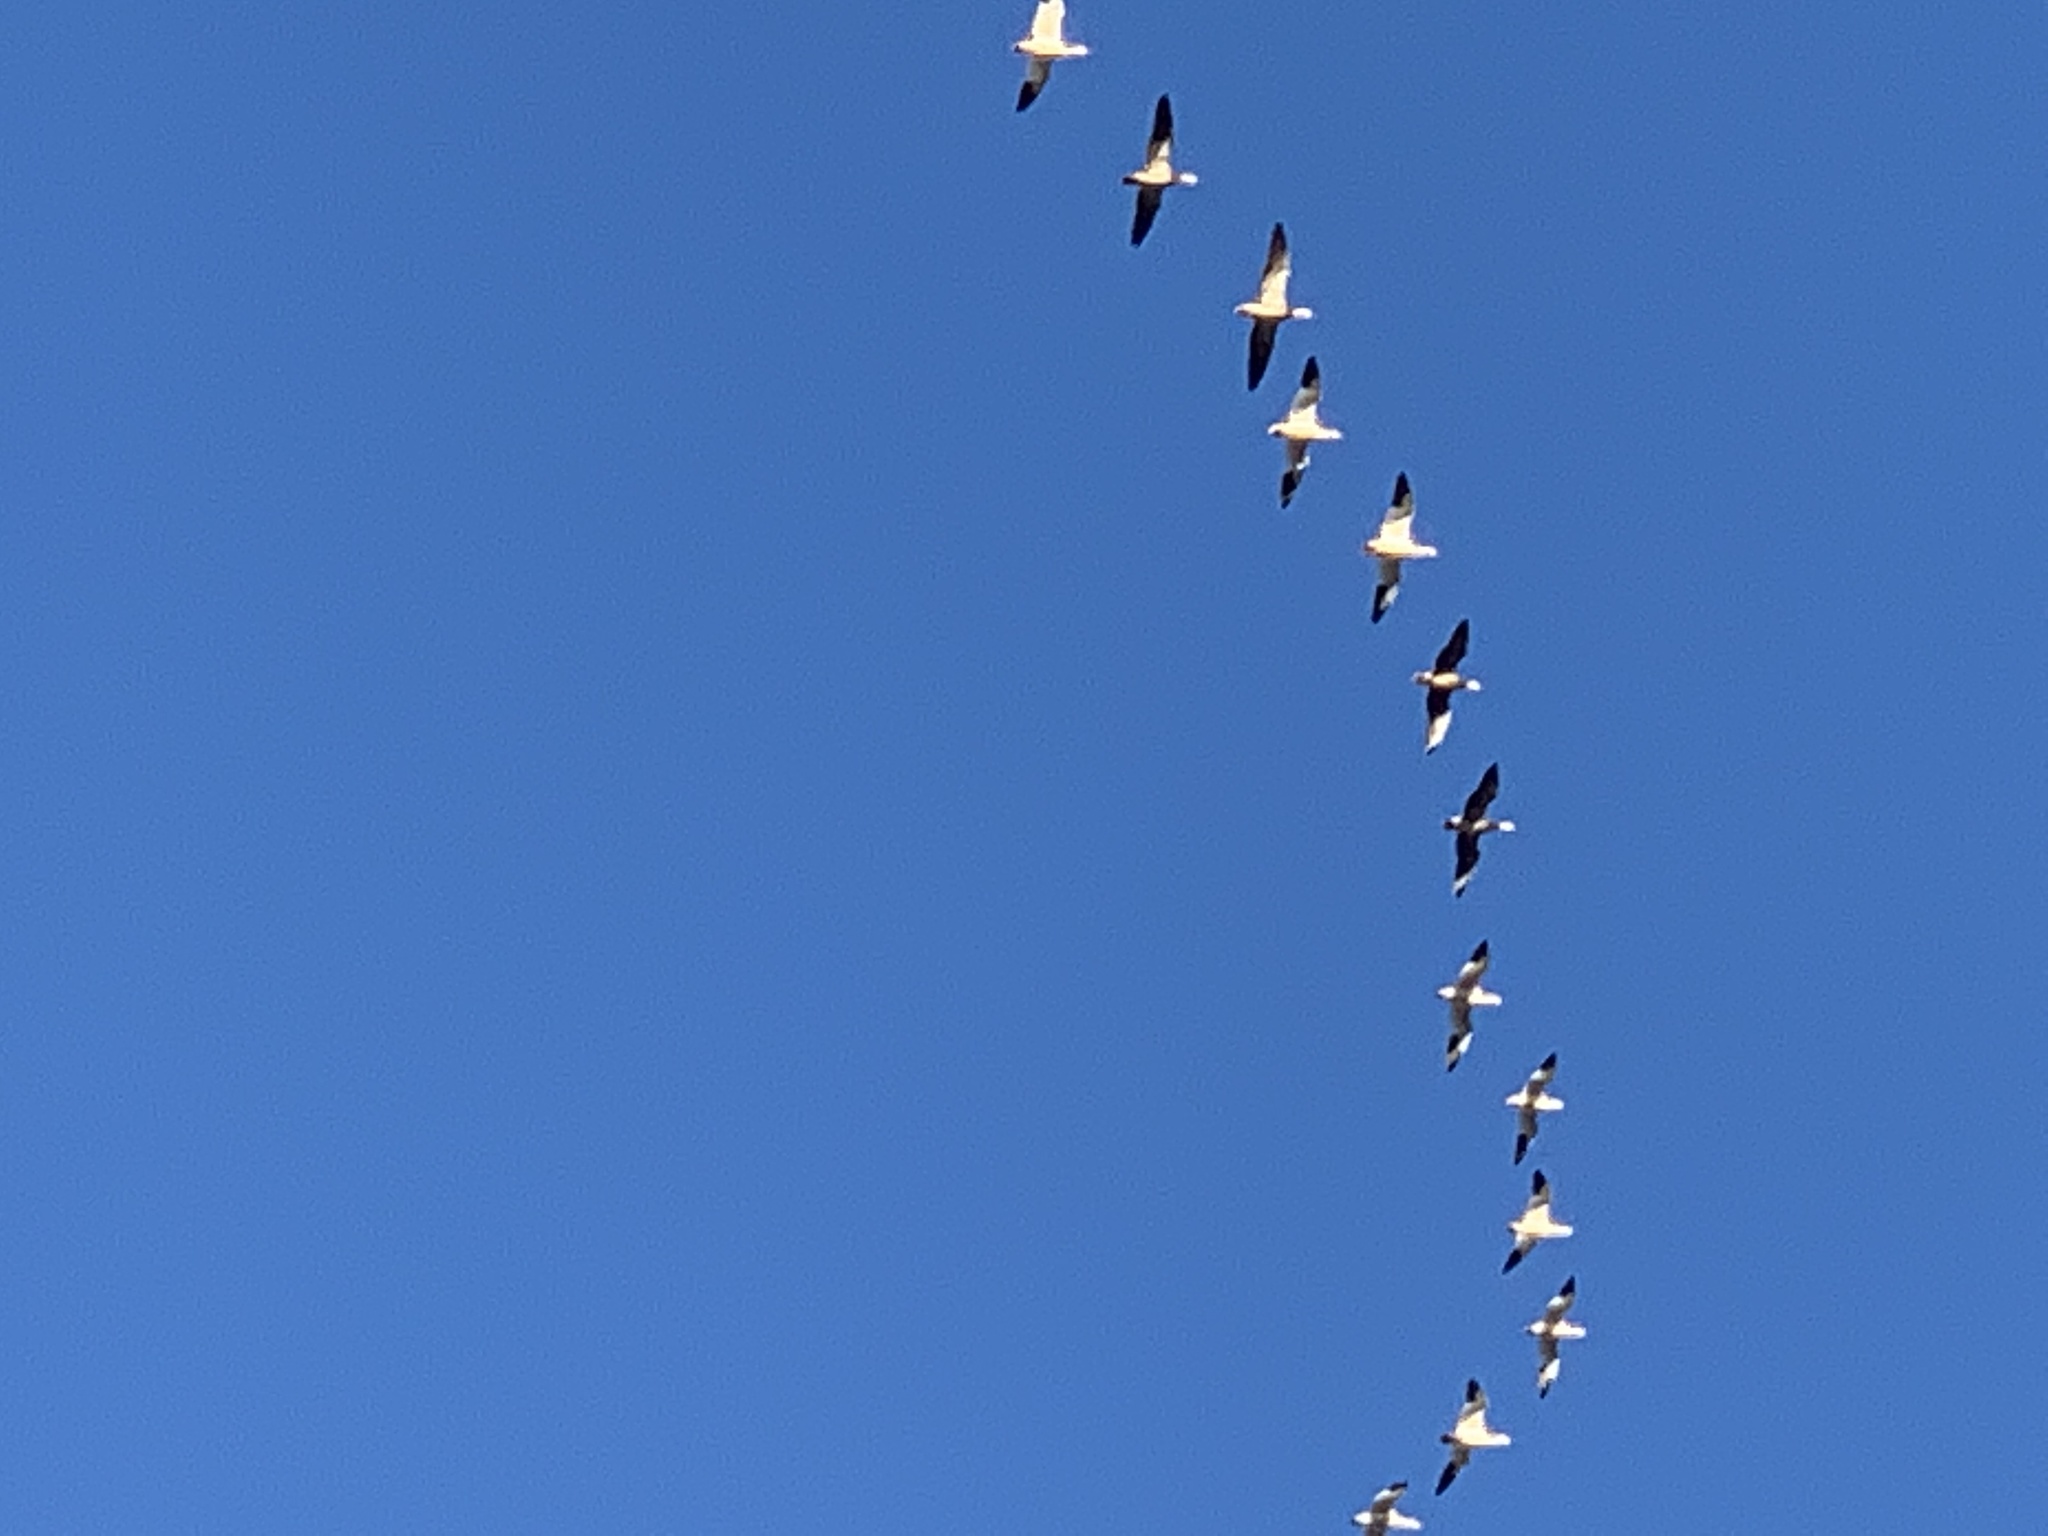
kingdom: Animalia
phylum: Chordata
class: Aves
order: Anseriformes
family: Anatidae
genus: Anser
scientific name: Anser caerulescens
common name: Snow goose
